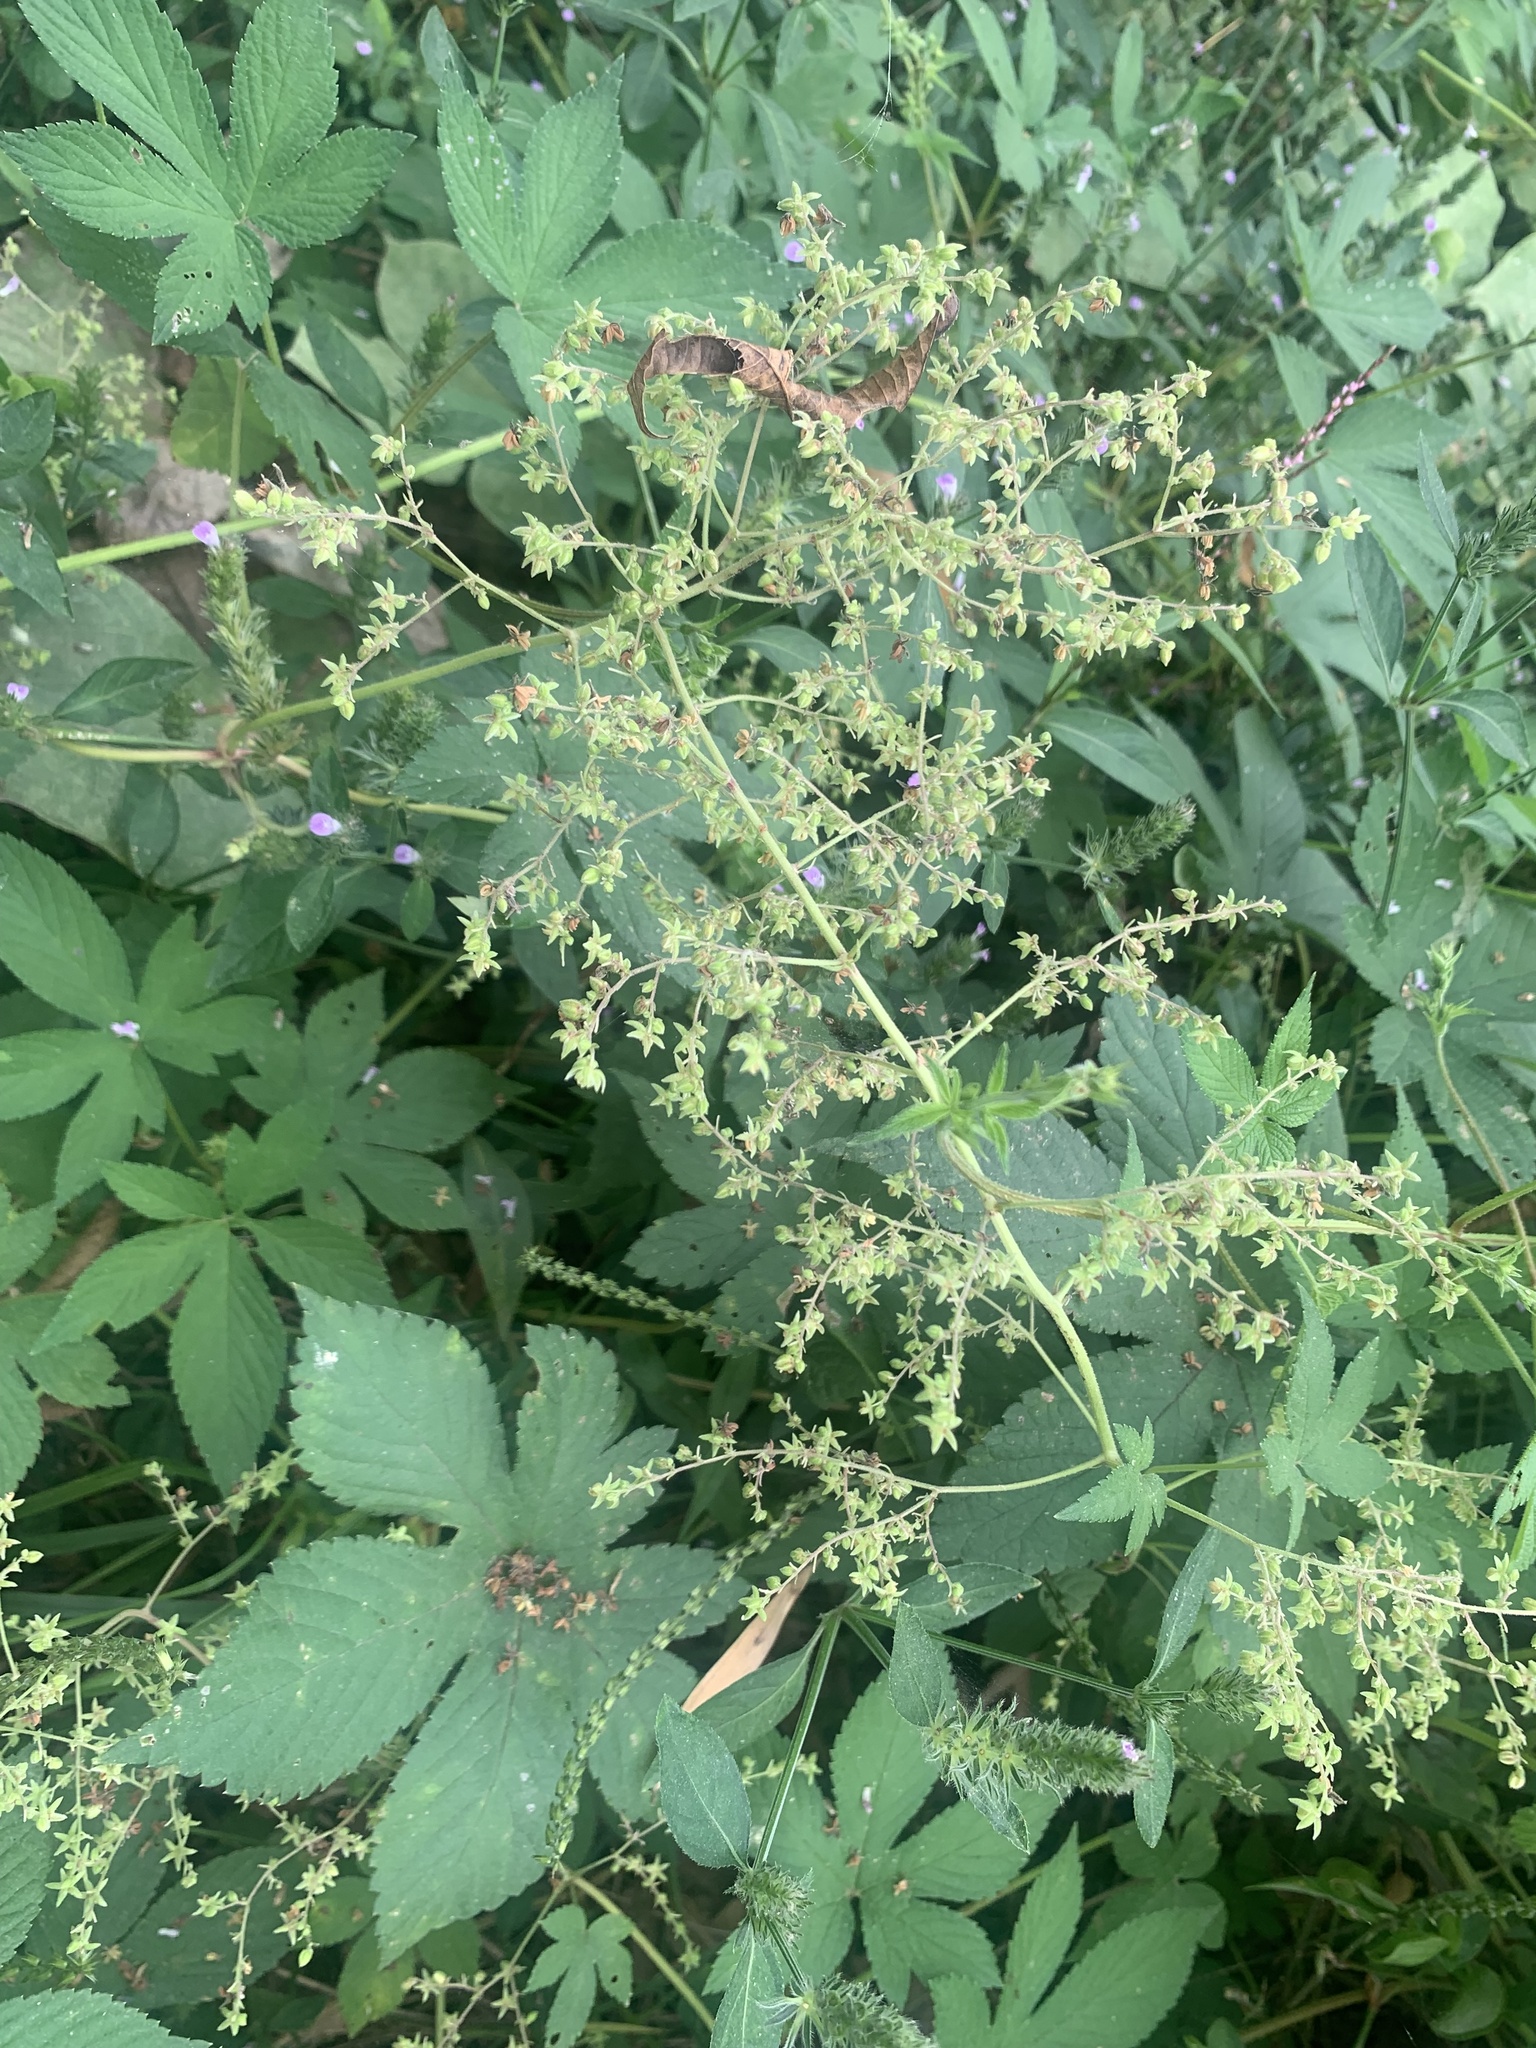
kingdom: Plantae
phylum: Tracheophyta
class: Magnoliopsida
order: Rosales
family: Cannabaceae
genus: Humulus
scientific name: Humulus scandens
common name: Japanese hop
